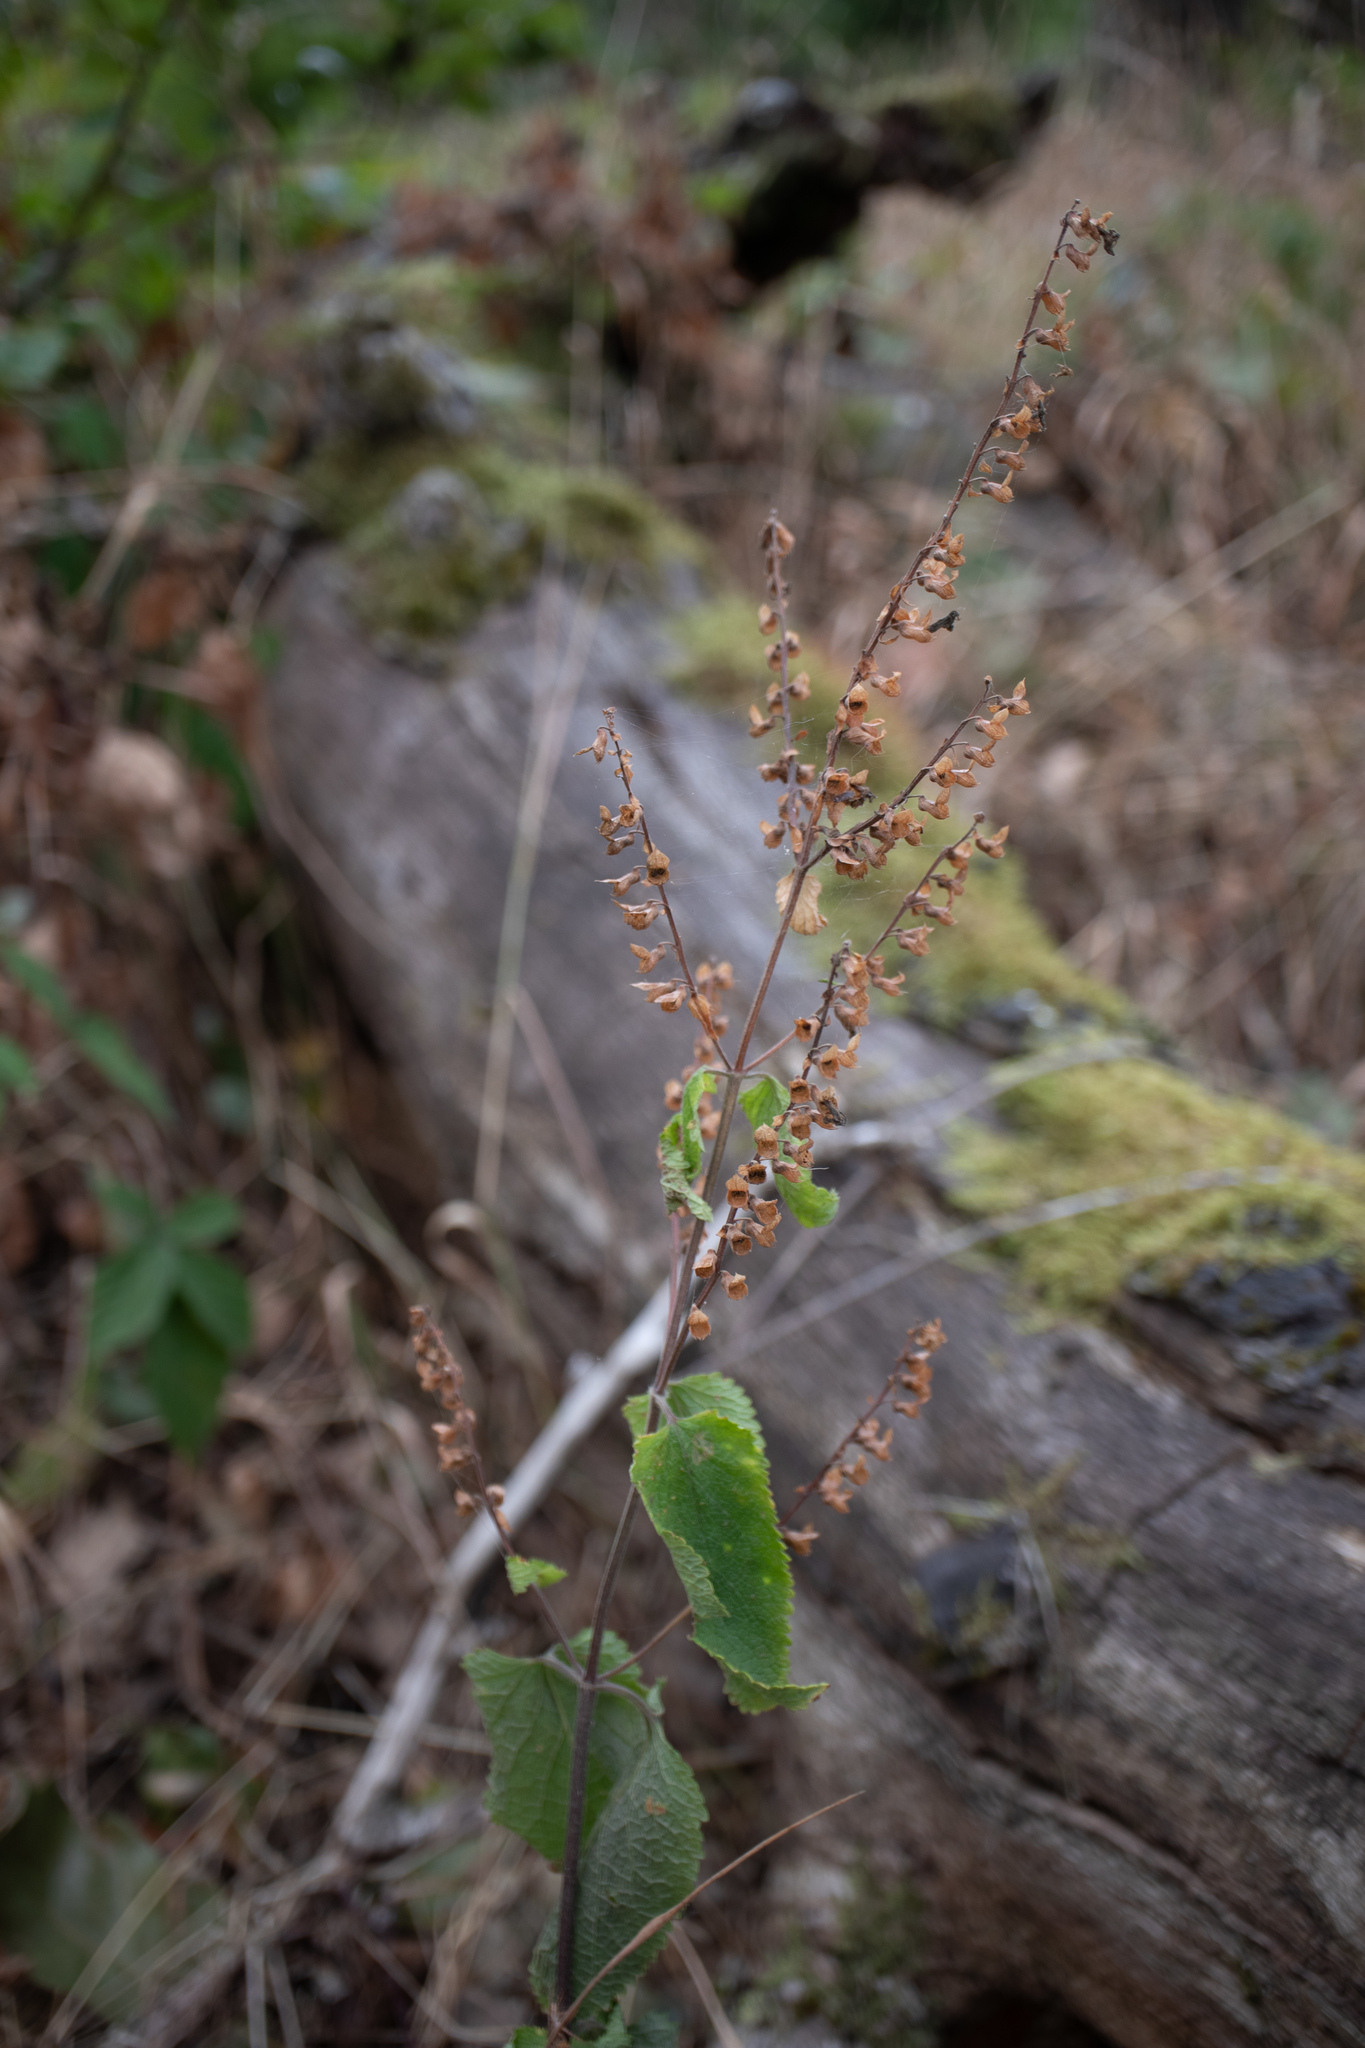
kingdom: Plantae
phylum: Tracheophyta
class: Magnoliopsida
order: Lamiales
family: Lamiaceae
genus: Teucrium
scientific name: Teucrium scorodonia
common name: Woodland germander
